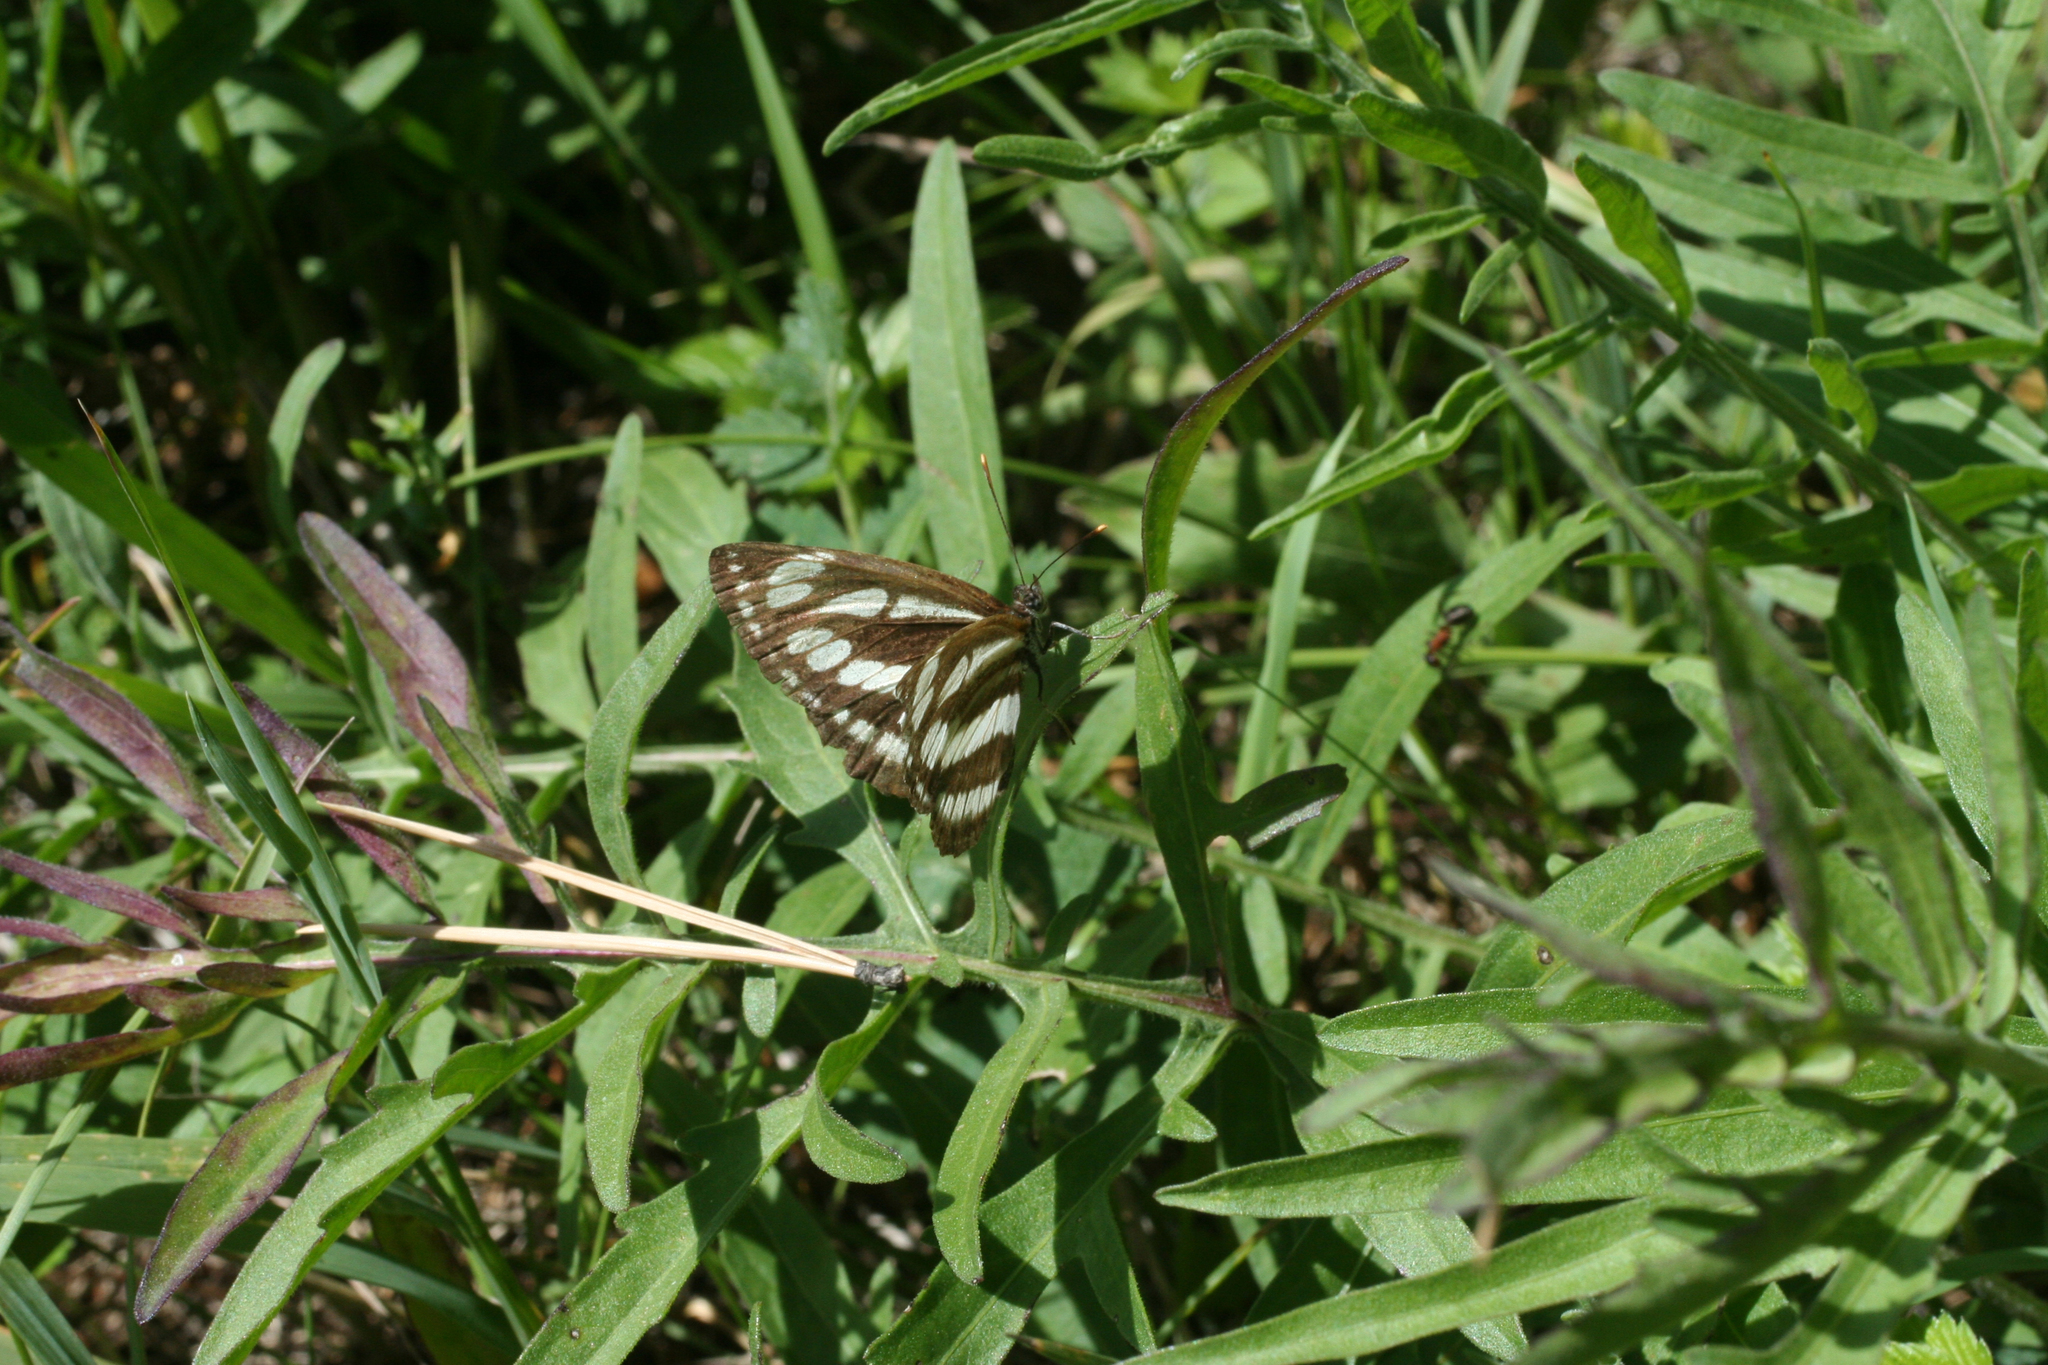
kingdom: Plantae
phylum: Tracheophyta
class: Magnoliopsida
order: Asterales
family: Asteraceae
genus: Centaurea
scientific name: Centaurea scabiosa
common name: Greater knapweed
